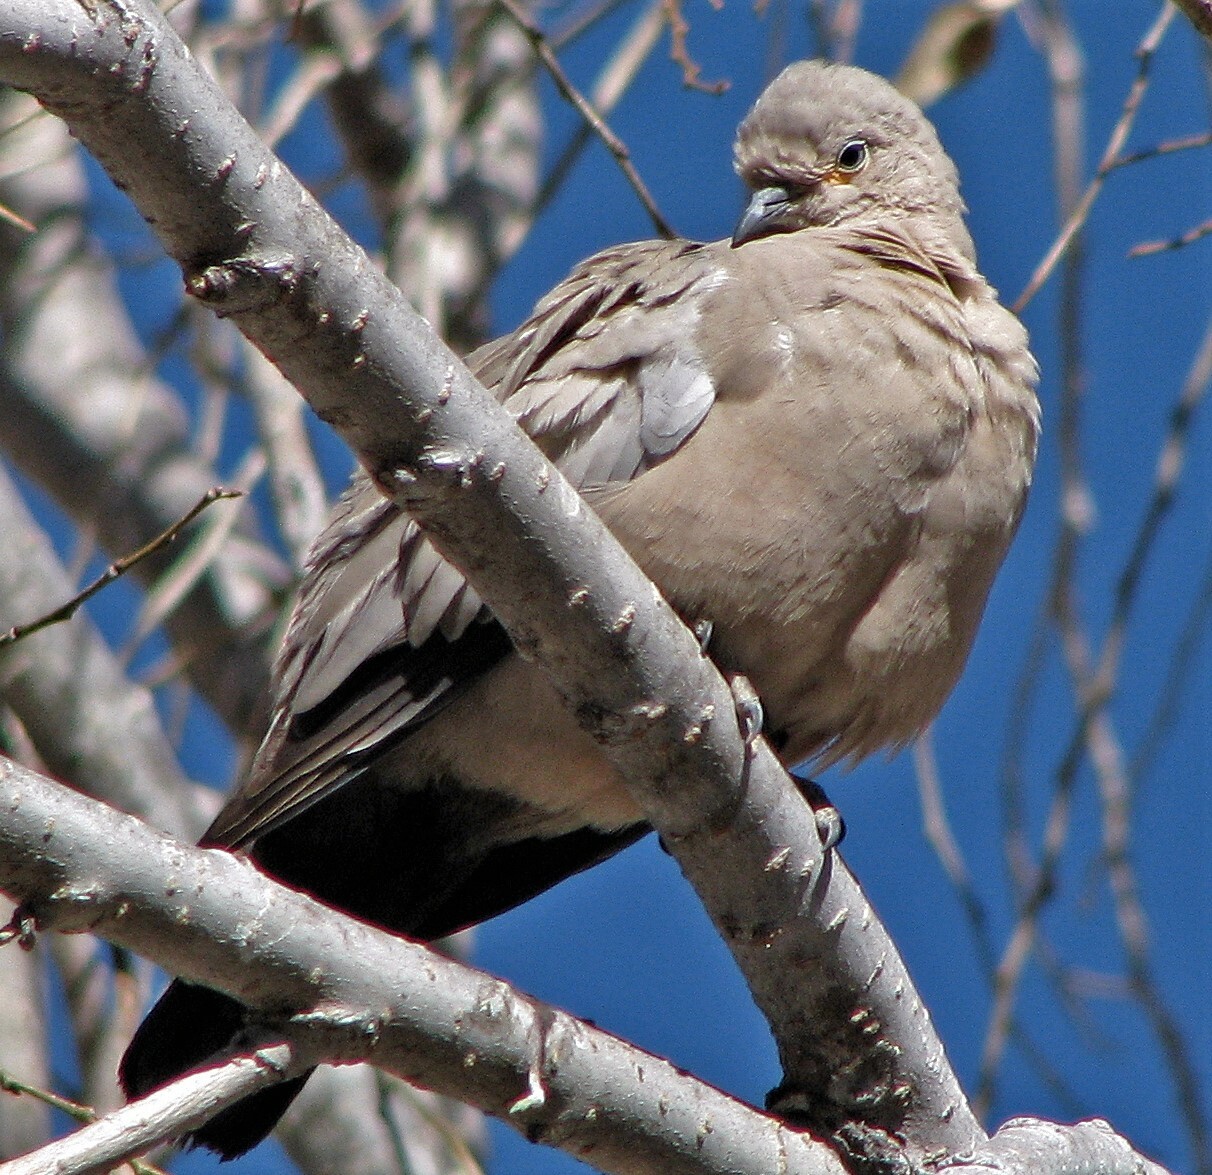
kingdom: Animalia
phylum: Chordata
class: Aves
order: Columbiformes
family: Columbidae
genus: Metriopelia
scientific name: Metriopelia melanoptera
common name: Black-winged ground dove
